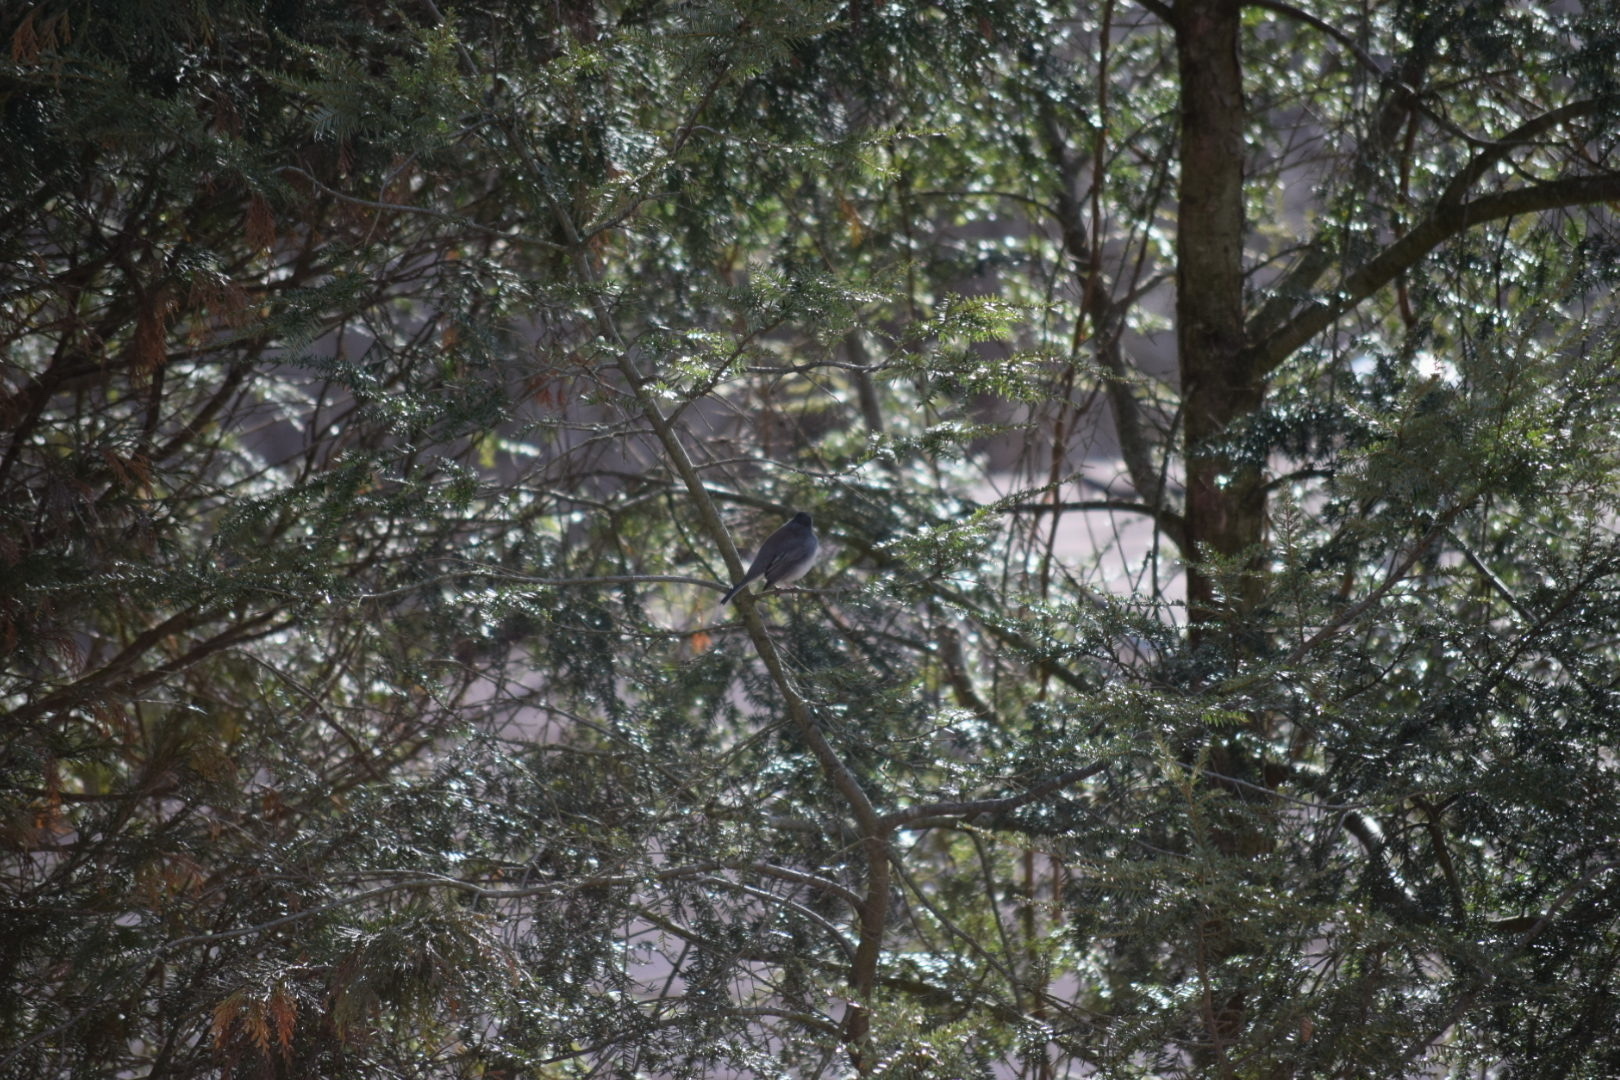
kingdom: Animalia
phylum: Chordata
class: Aves
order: Passeriformes
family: Passerellidae
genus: Junco
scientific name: Junco hyemalis
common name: Dark-eyed junco
